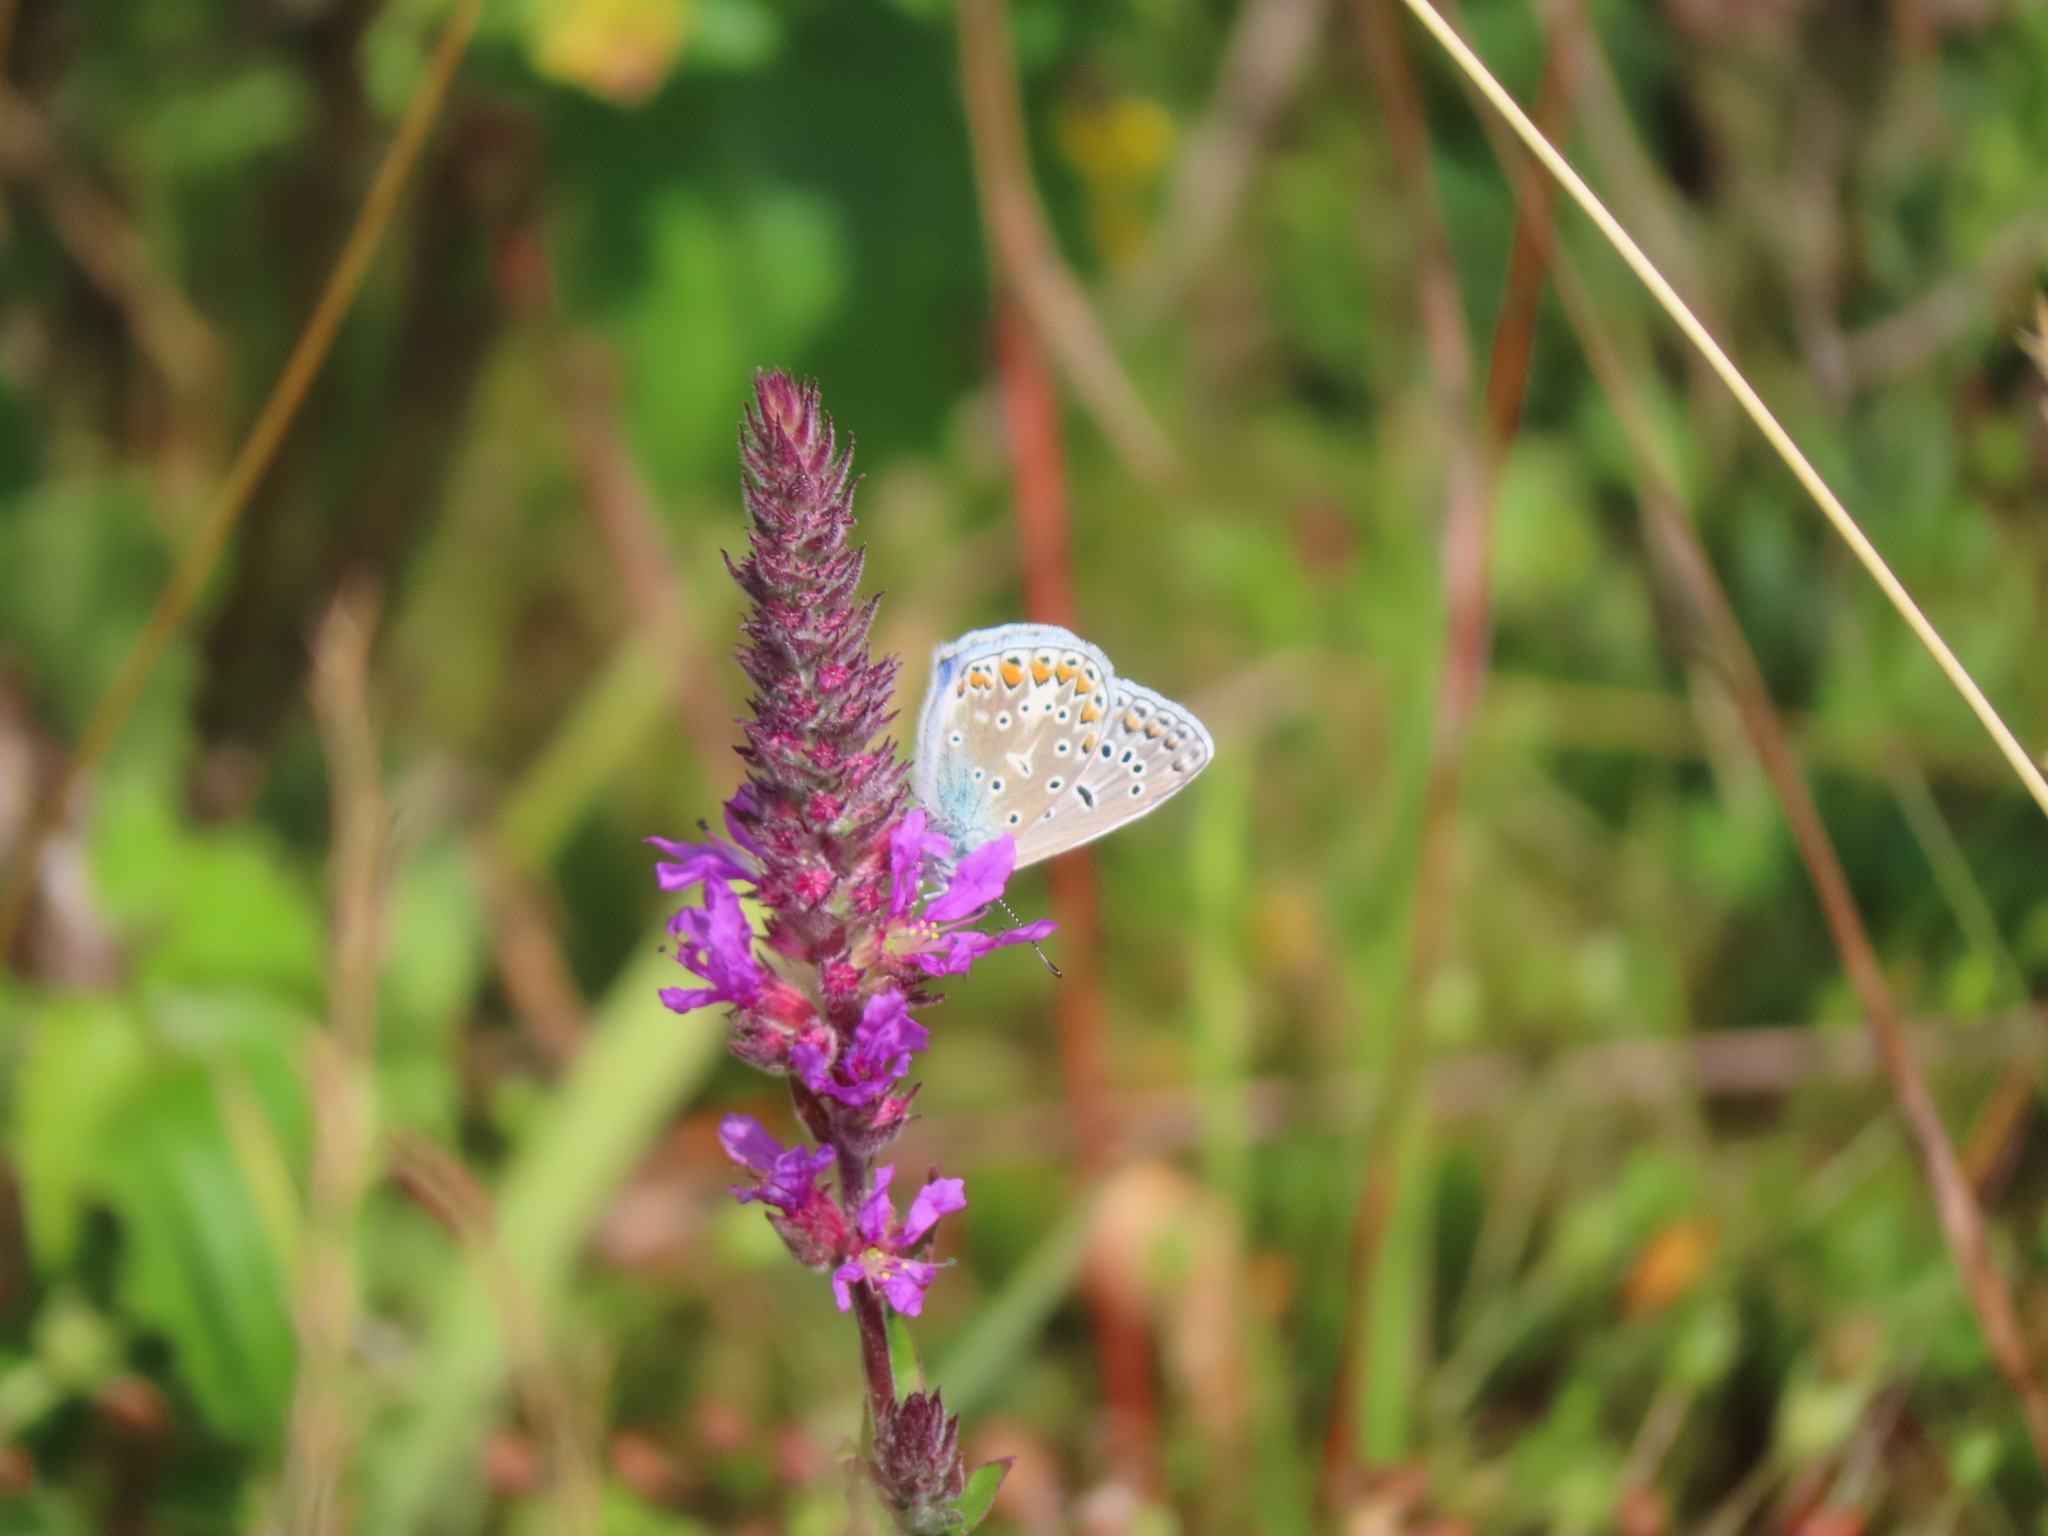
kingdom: Animalia
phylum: Arthropoda
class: Insecta
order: Lepidoptera
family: Lycaenidae
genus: Polyommatus
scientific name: Polyommatus icarus
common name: Common blue
